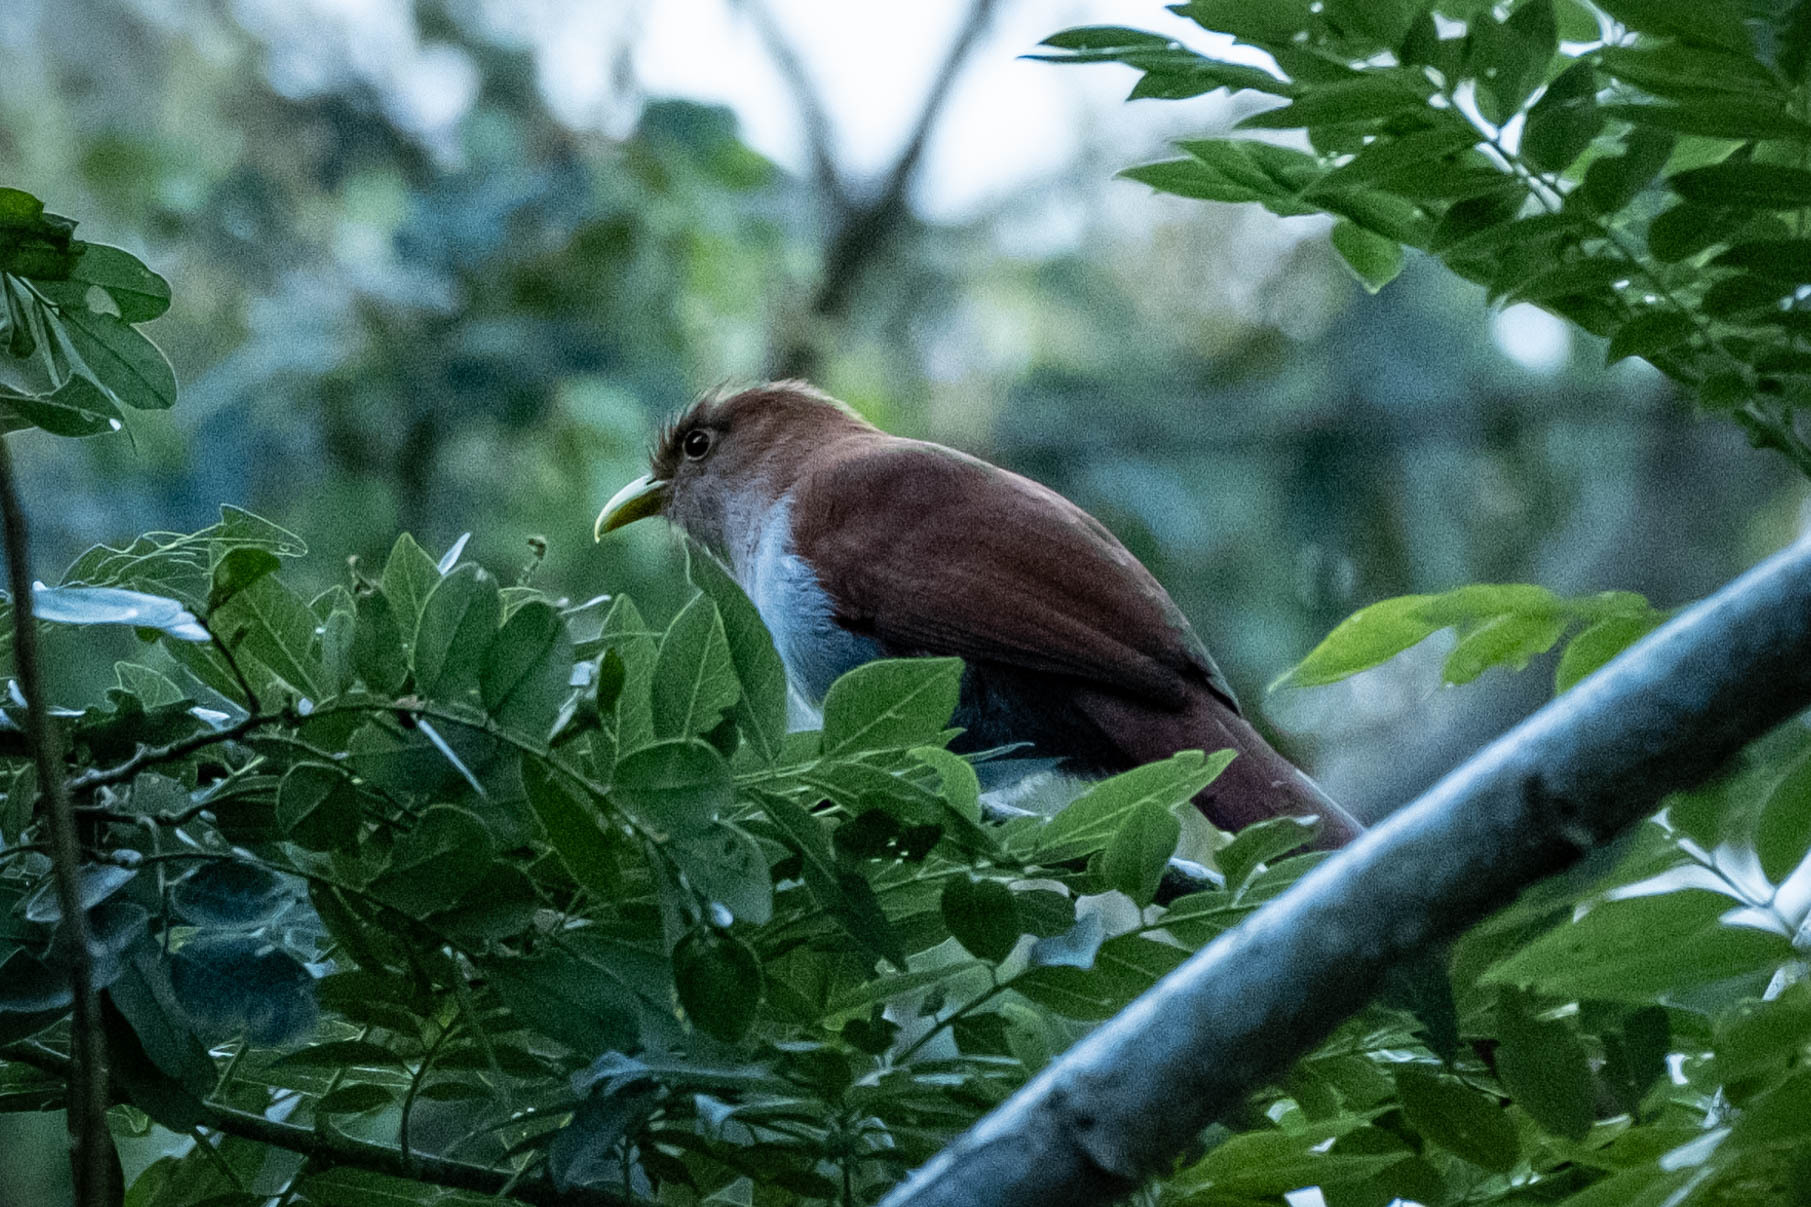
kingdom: Animalia
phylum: Chordata
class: Aves
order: Cuculiformes
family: Cuculidae
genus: Piaya
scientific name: Piaya cayana
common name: Squirrel cuckoo
